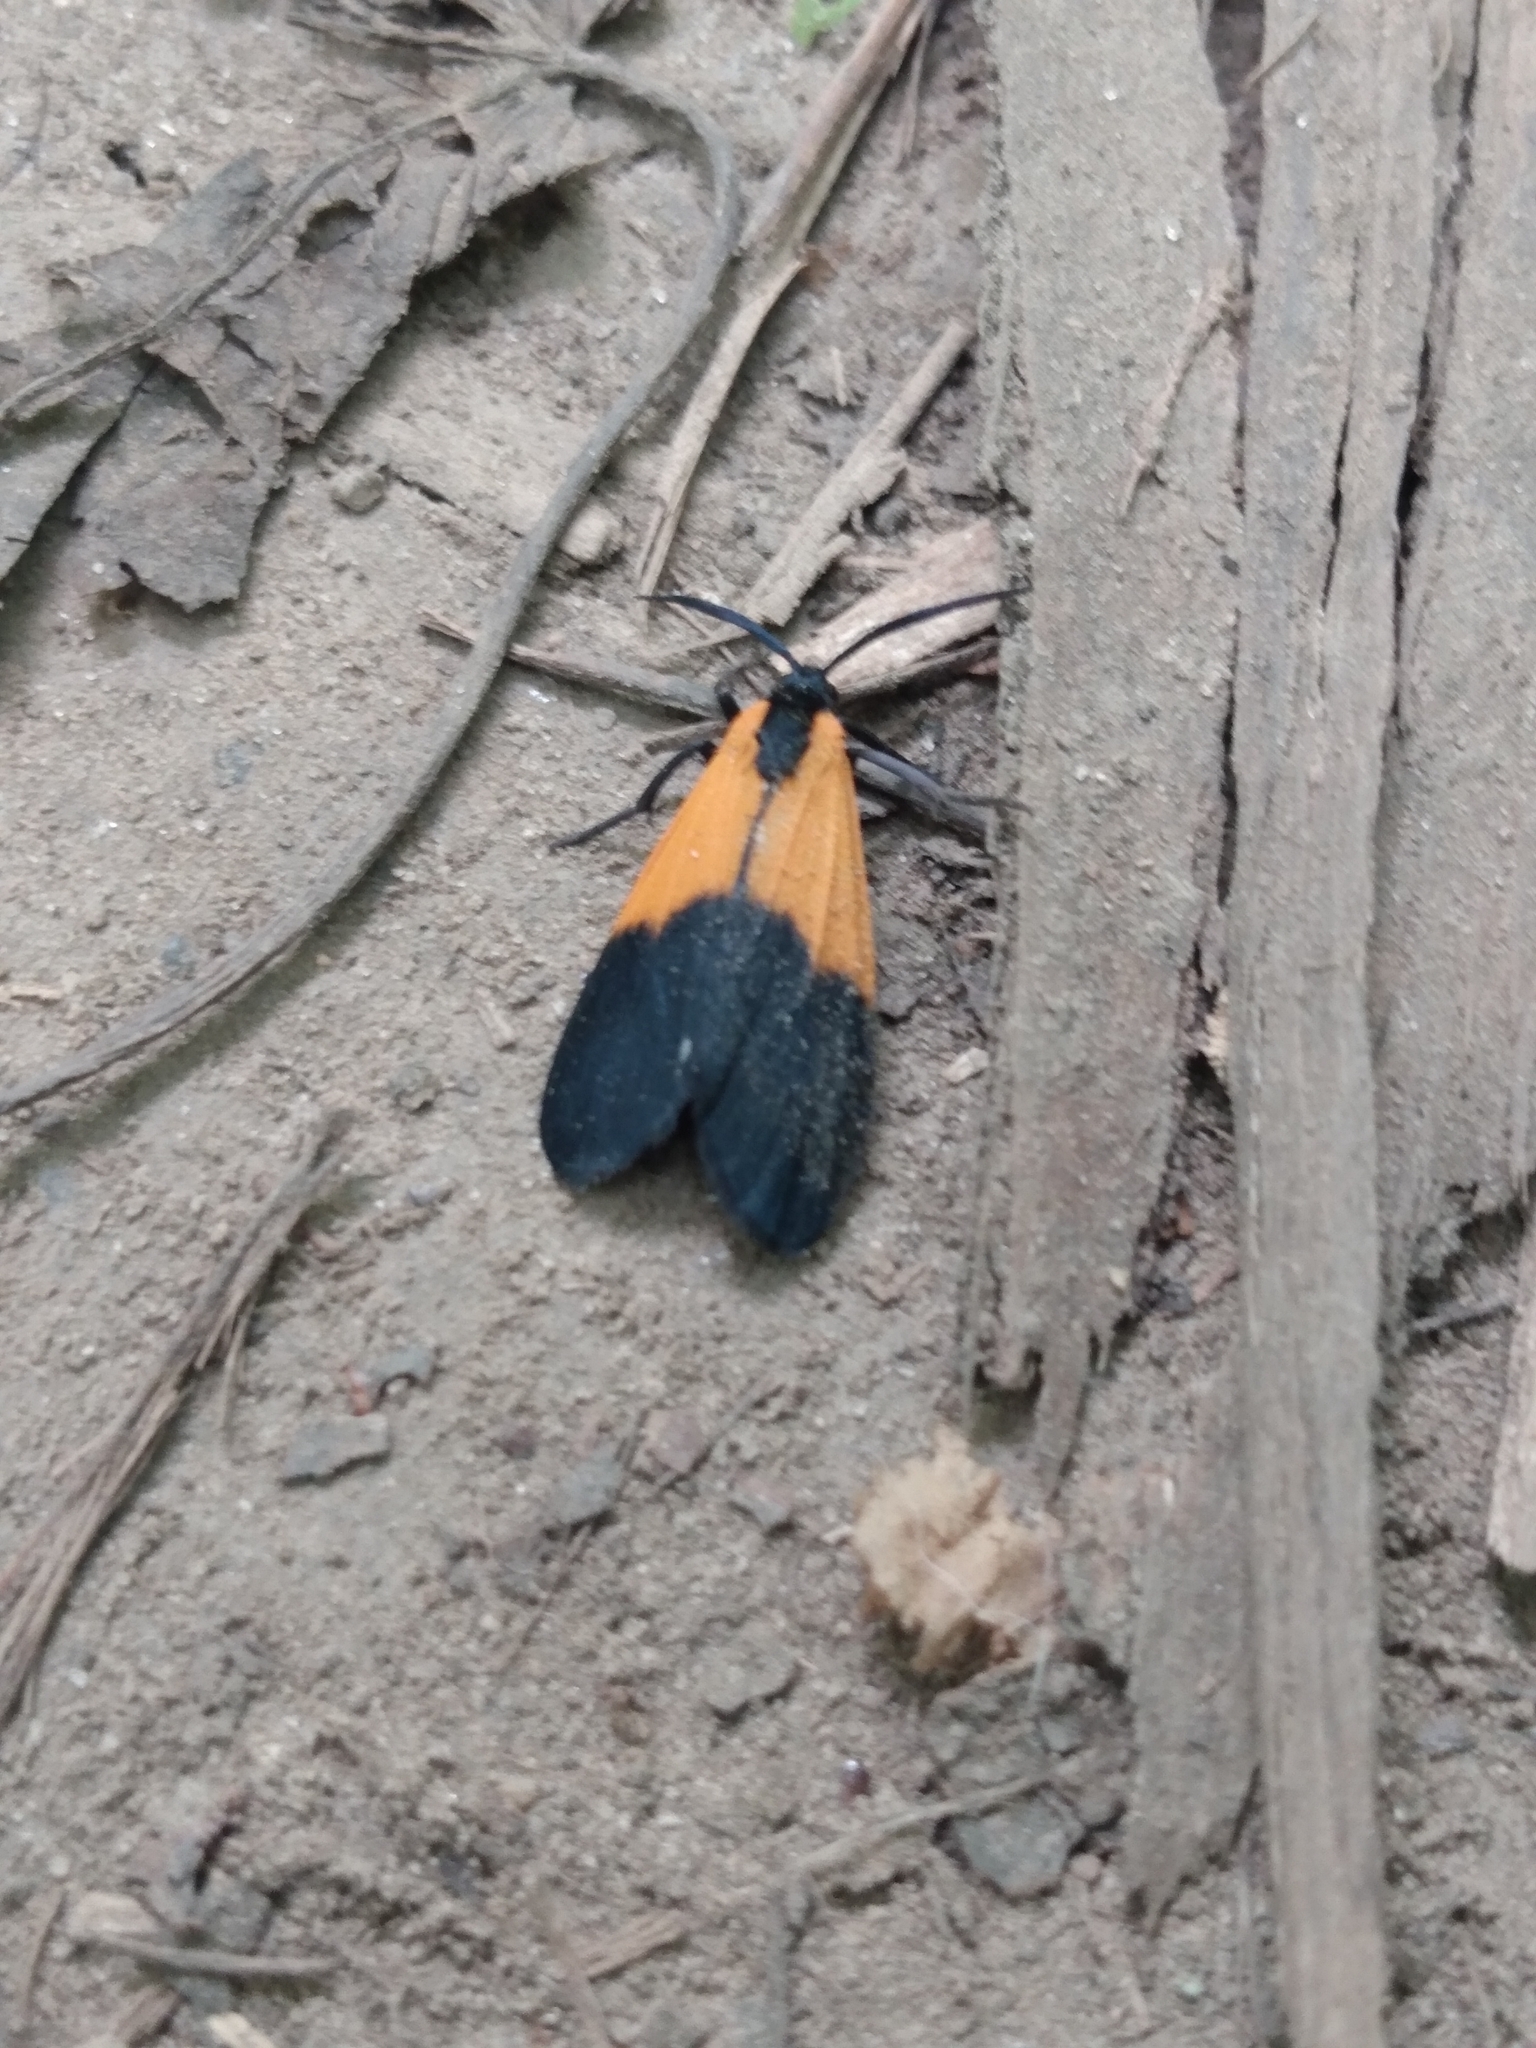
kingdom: Animalia
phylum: Arthropoda
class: Insecta
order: Lepidoptera
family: Erebidae
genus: Lycomorpha
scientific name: Lycomorpha pholus
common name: Black-and-yellow lichen moth
